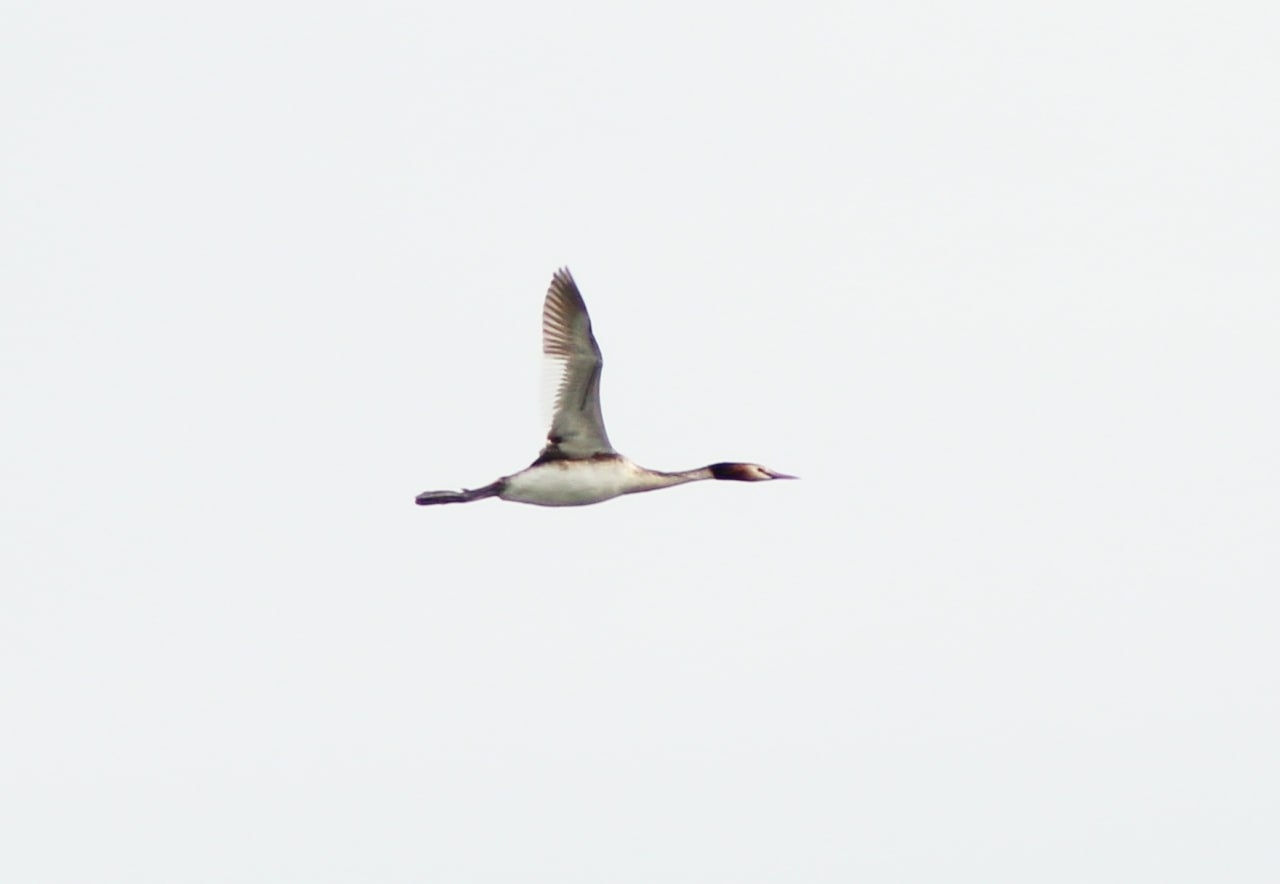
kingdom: Animalia
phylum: Chordata
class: Aves
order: Podicipediformes
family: Podicipedidae
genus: Podiceps
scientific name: Podiceps cristatus
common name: Great crested grebe
